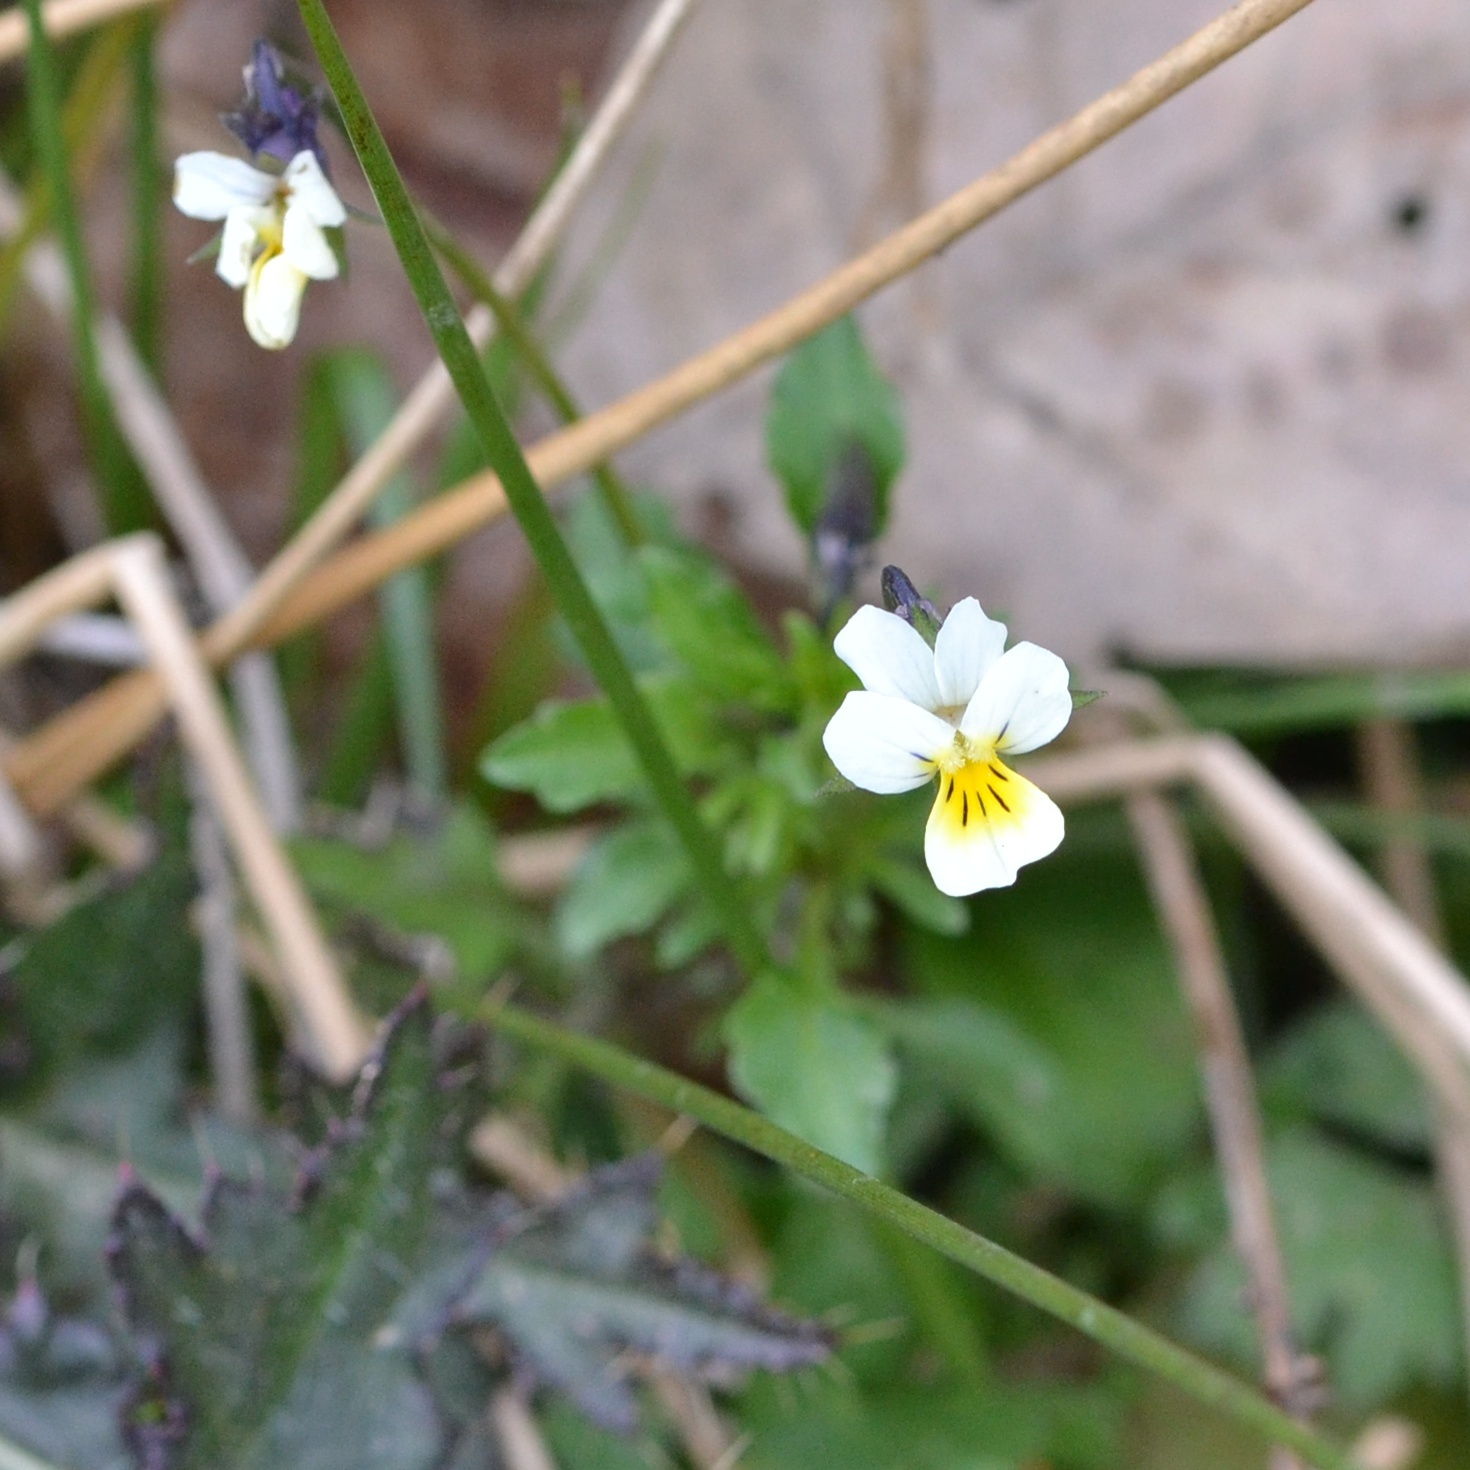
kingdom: Plantae
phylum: Tracheophyta
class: Magnoliopsida
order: Malpighiales
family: Violaceae
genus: Viola
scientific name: Viola arvensis
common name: Field pansy
